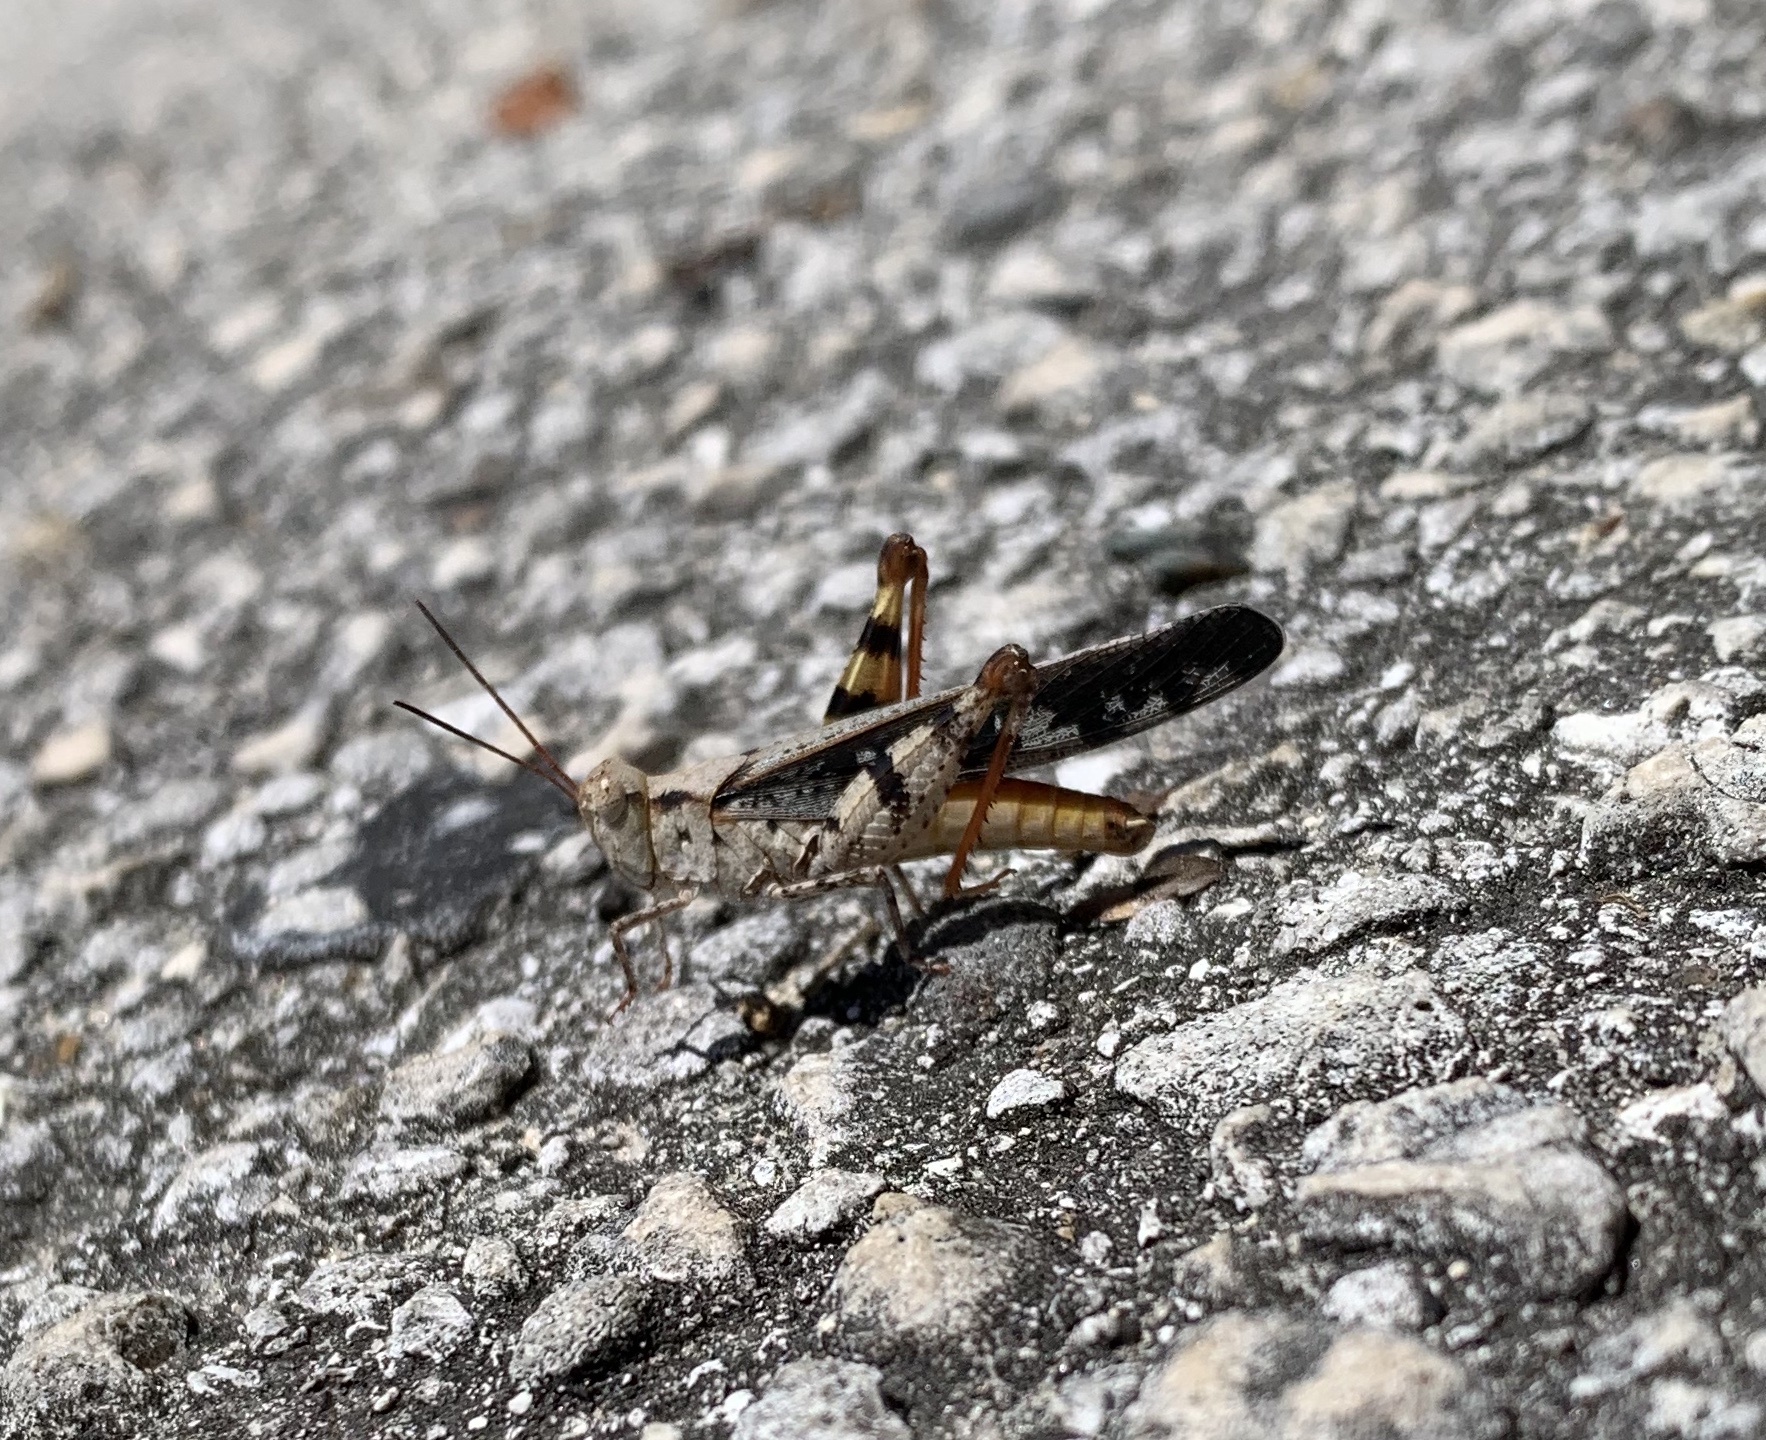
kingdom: Animalia
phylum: Arthropoda
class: Insecta
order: Orthoptera
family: Acrididae
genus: Spharagemon
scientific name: Spharagemon marmoratum
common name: Marbled grasshopper
